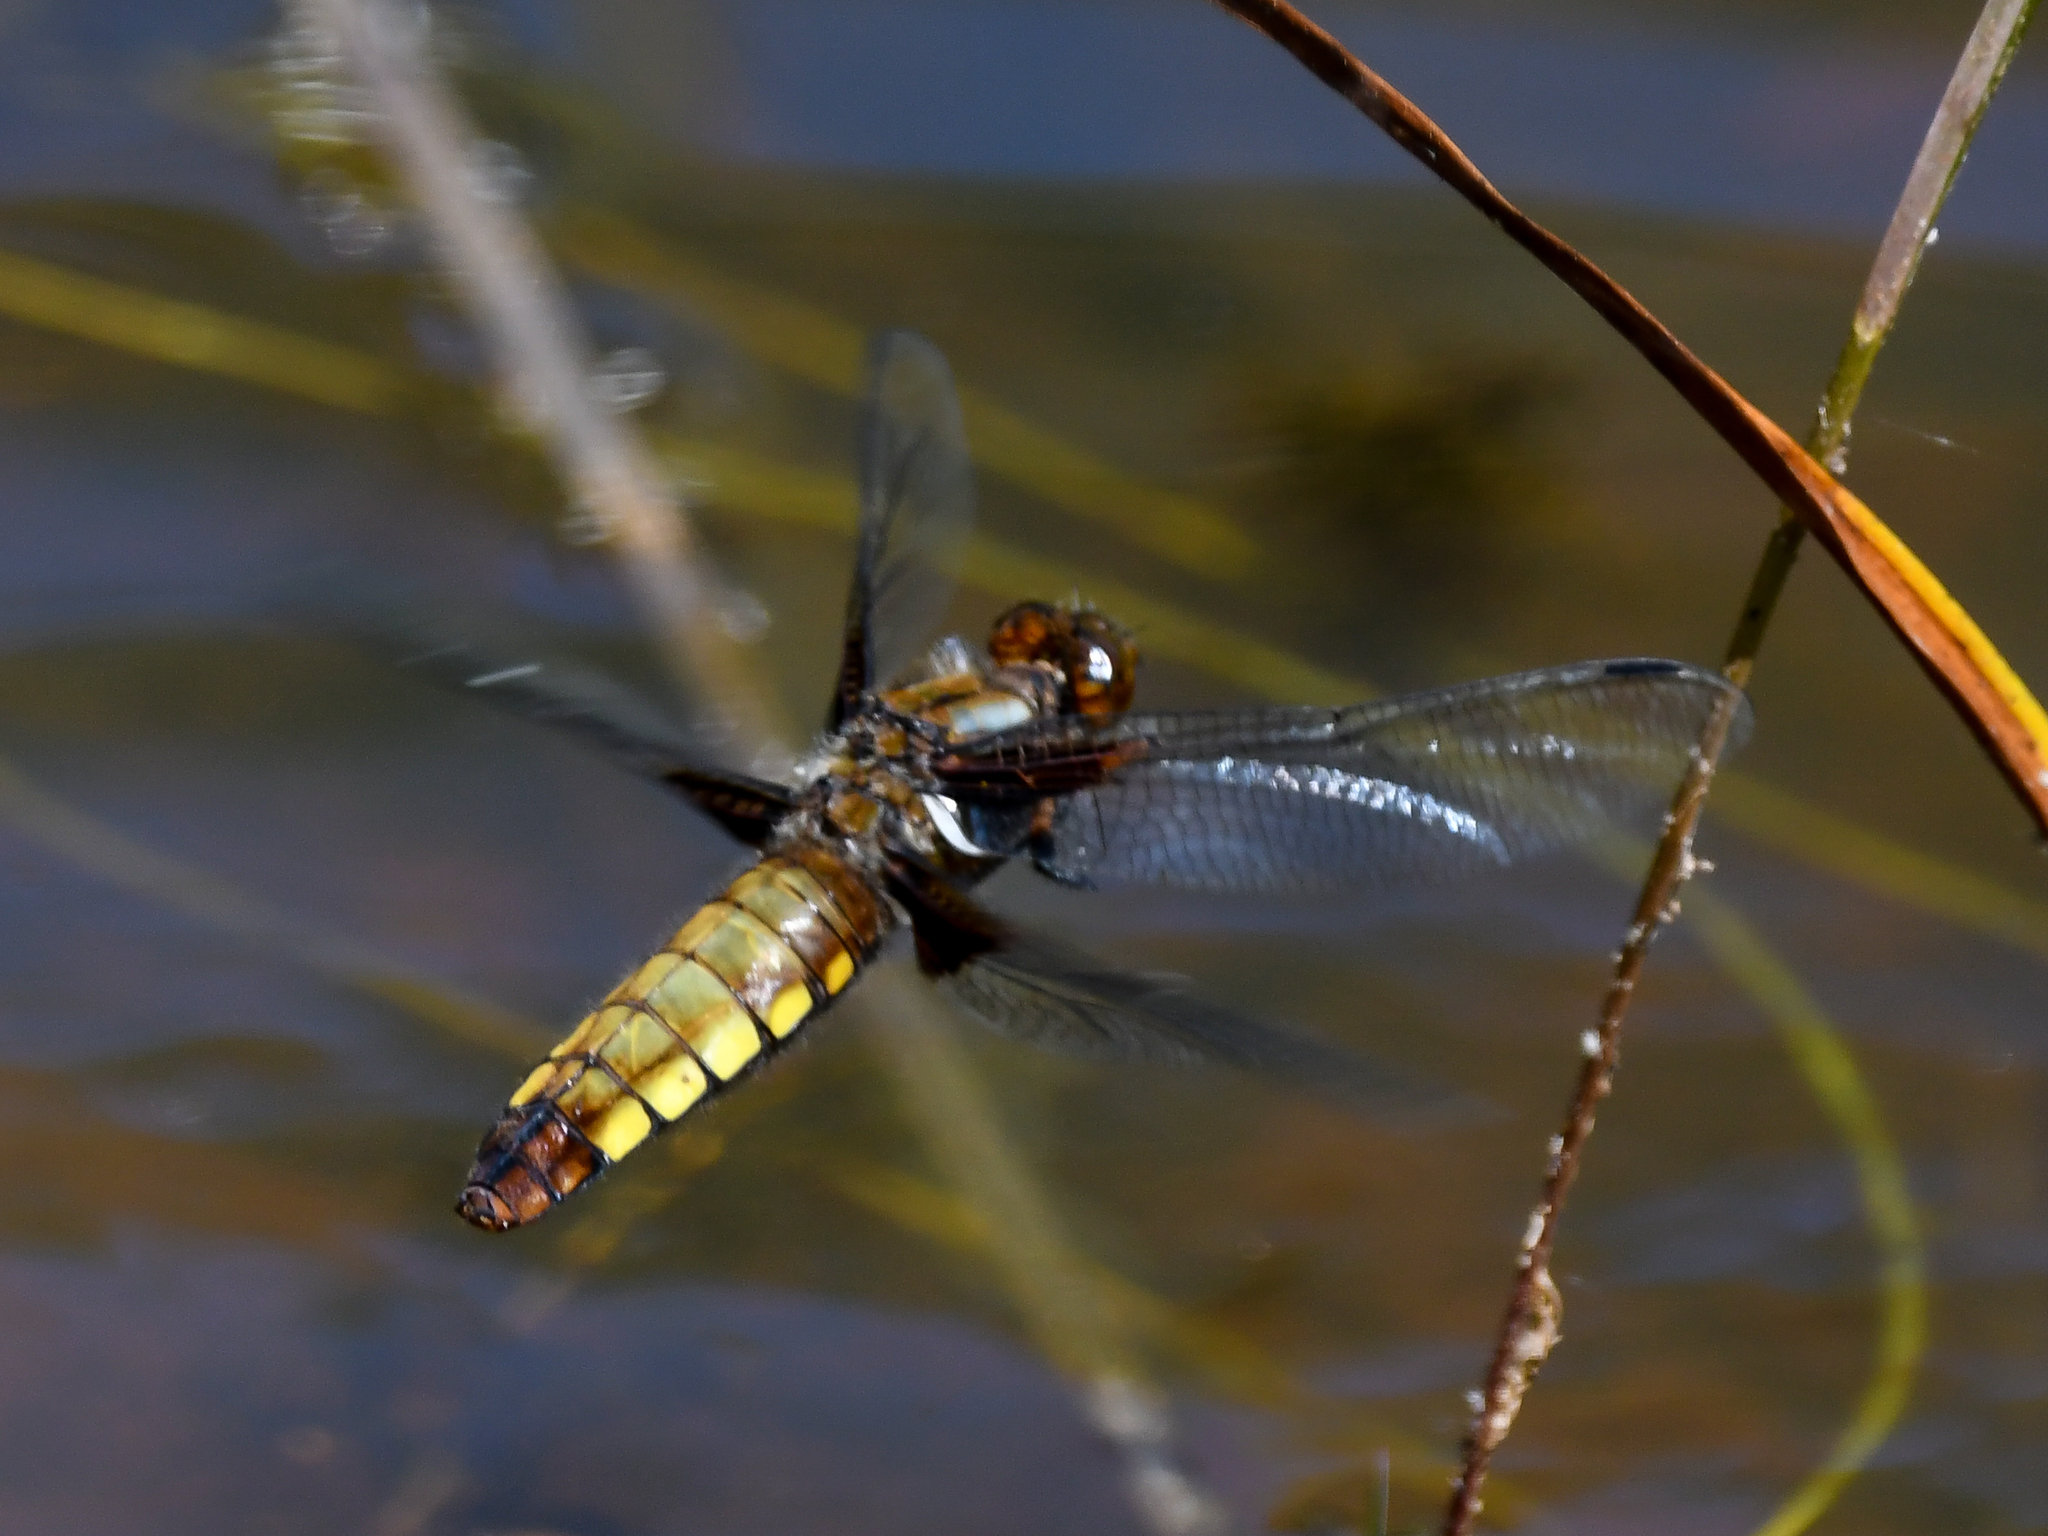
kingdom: Animalia
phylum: Arthropoda
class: Insecta
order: Odonata
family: Libellulidae
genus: Libellula
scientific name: Libellula depressa
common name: Broad-bodied chaser
